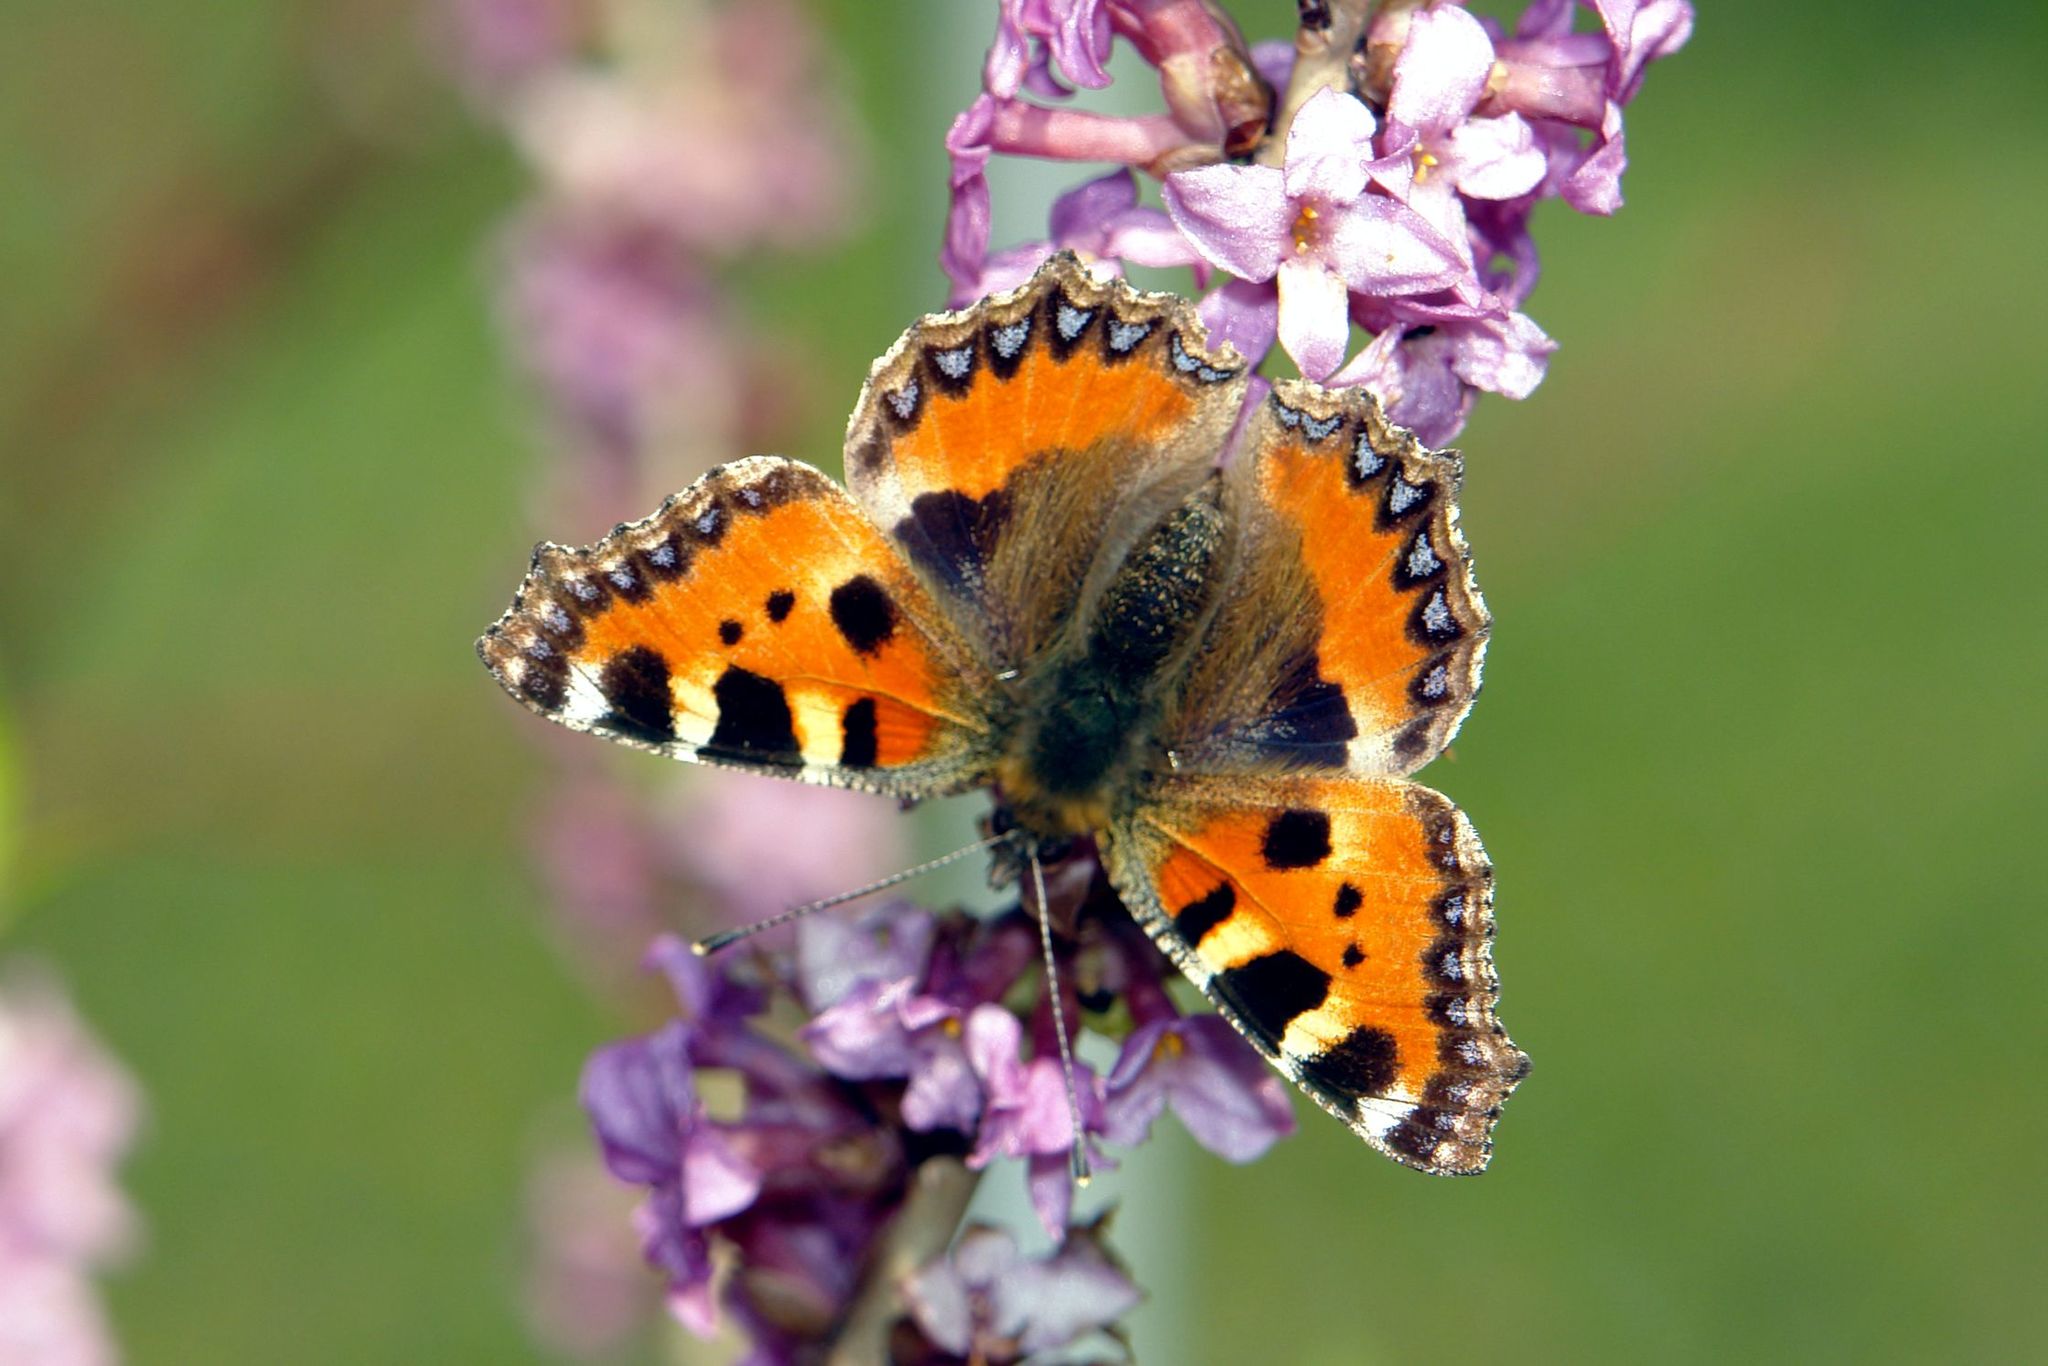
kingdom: Animalia
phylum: Arthropoda
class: Insecta
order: Lepidoptera
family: Nymphalidae
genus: Aglais
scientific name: Aglais urticae
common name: Small tortoiseshell
